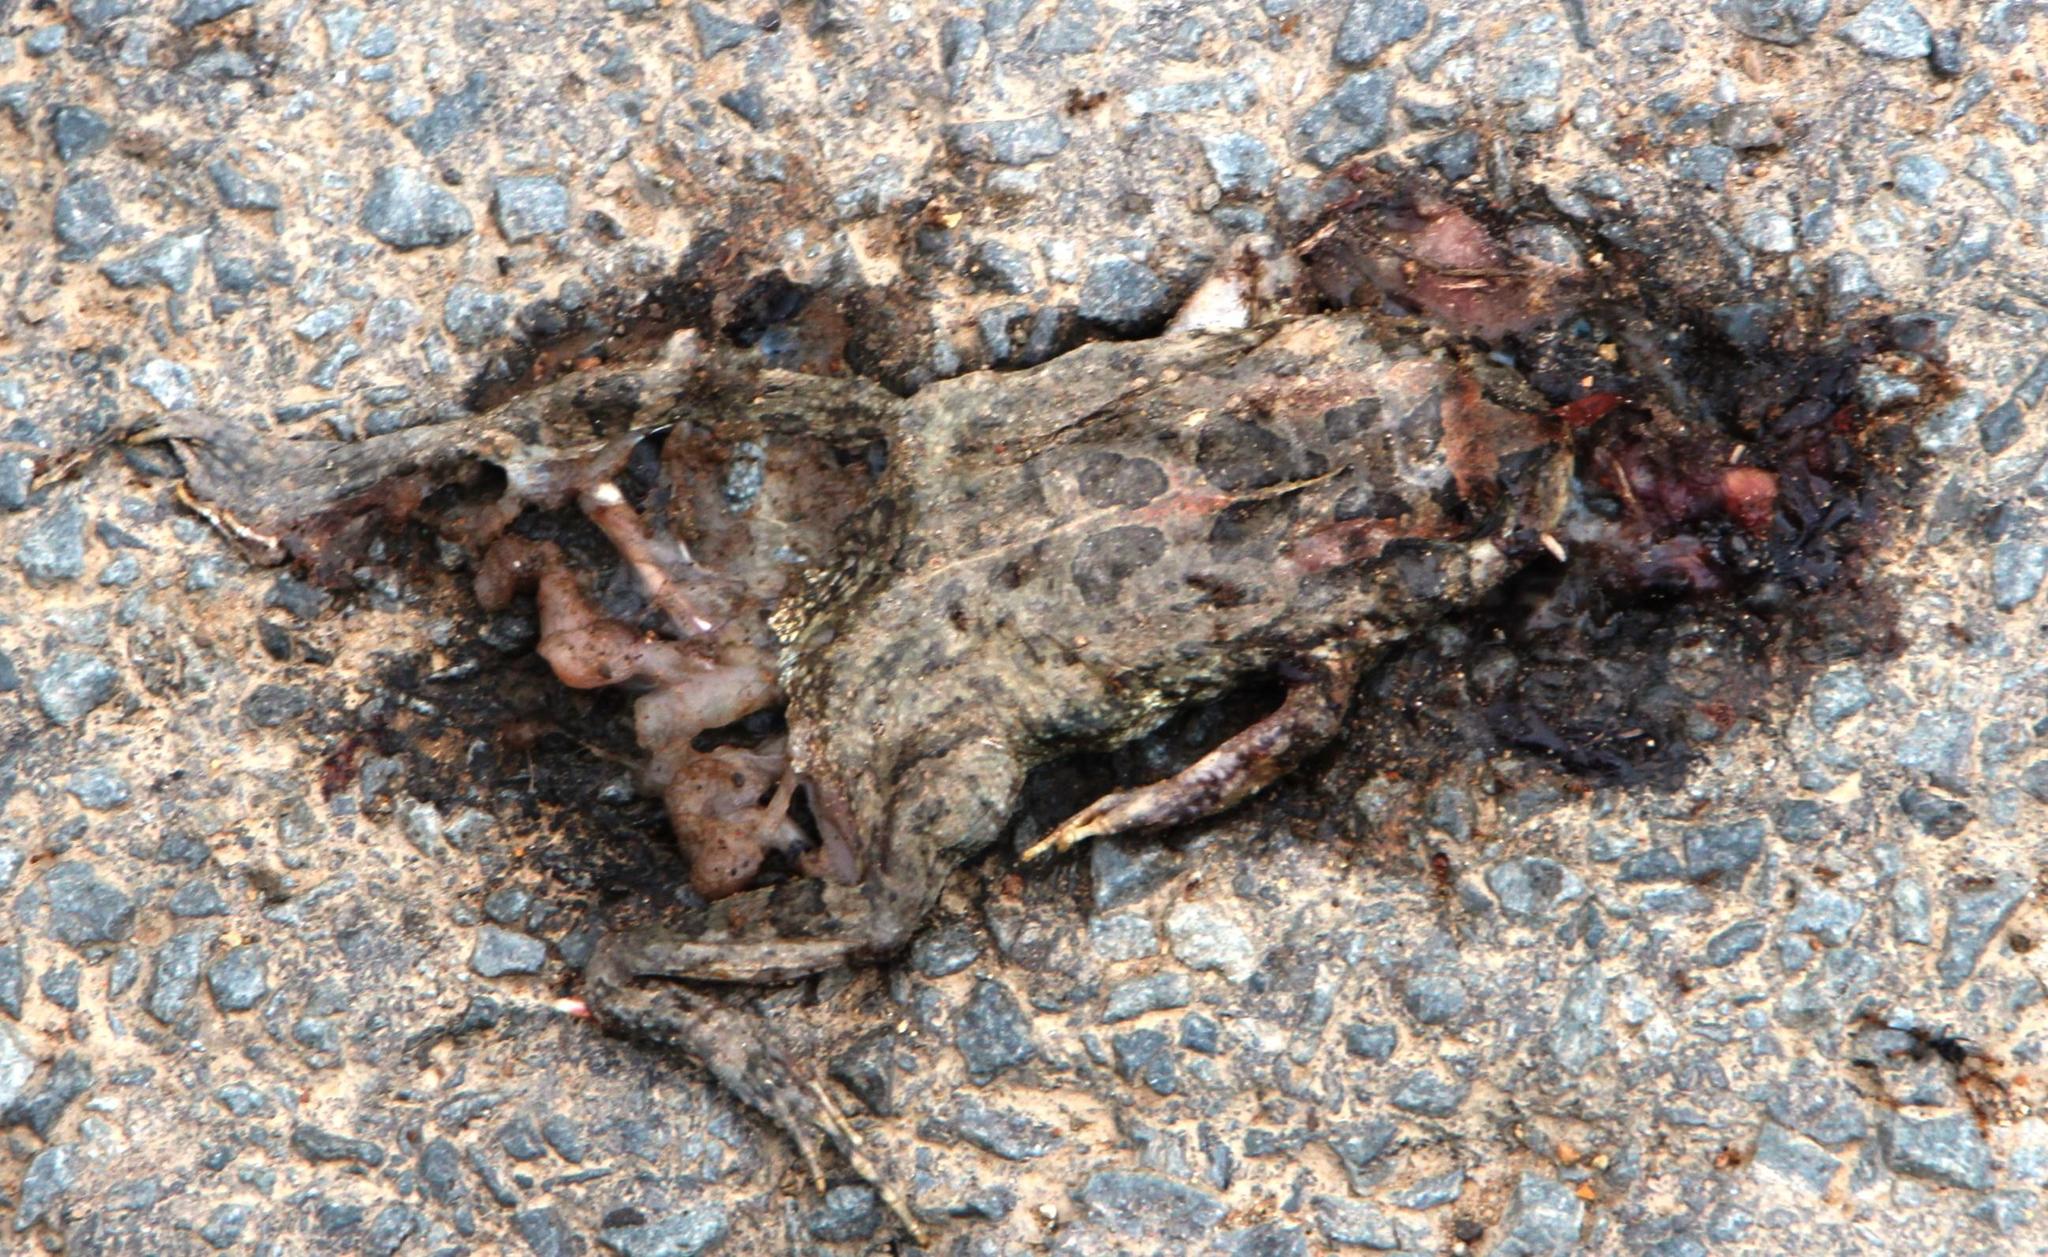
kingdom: Animalia
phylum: Chordata
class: Amphibia
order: Anura
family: Bufonidae
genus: Sclerophrys
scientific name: Sclerophrys capensis
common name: Ranger’s toad
